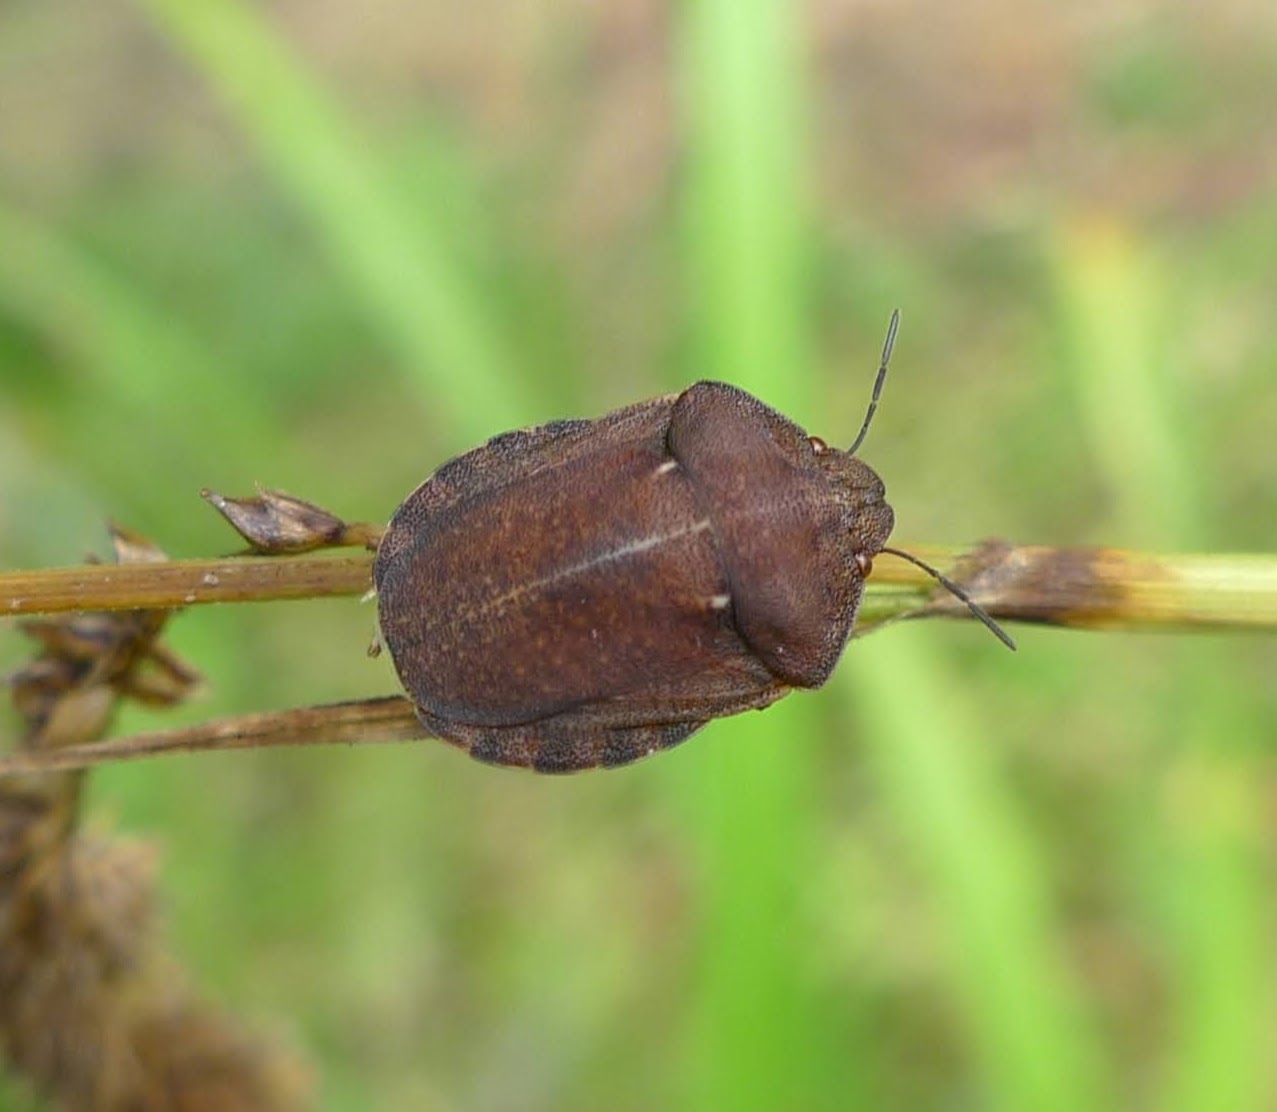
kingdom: Animalia
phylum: Arthropoda
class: Insecta
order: Hemiptera
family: Scutelleridae
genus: Eurygaster
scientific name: Eurygaster testudinaria
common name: Tortoise bug
